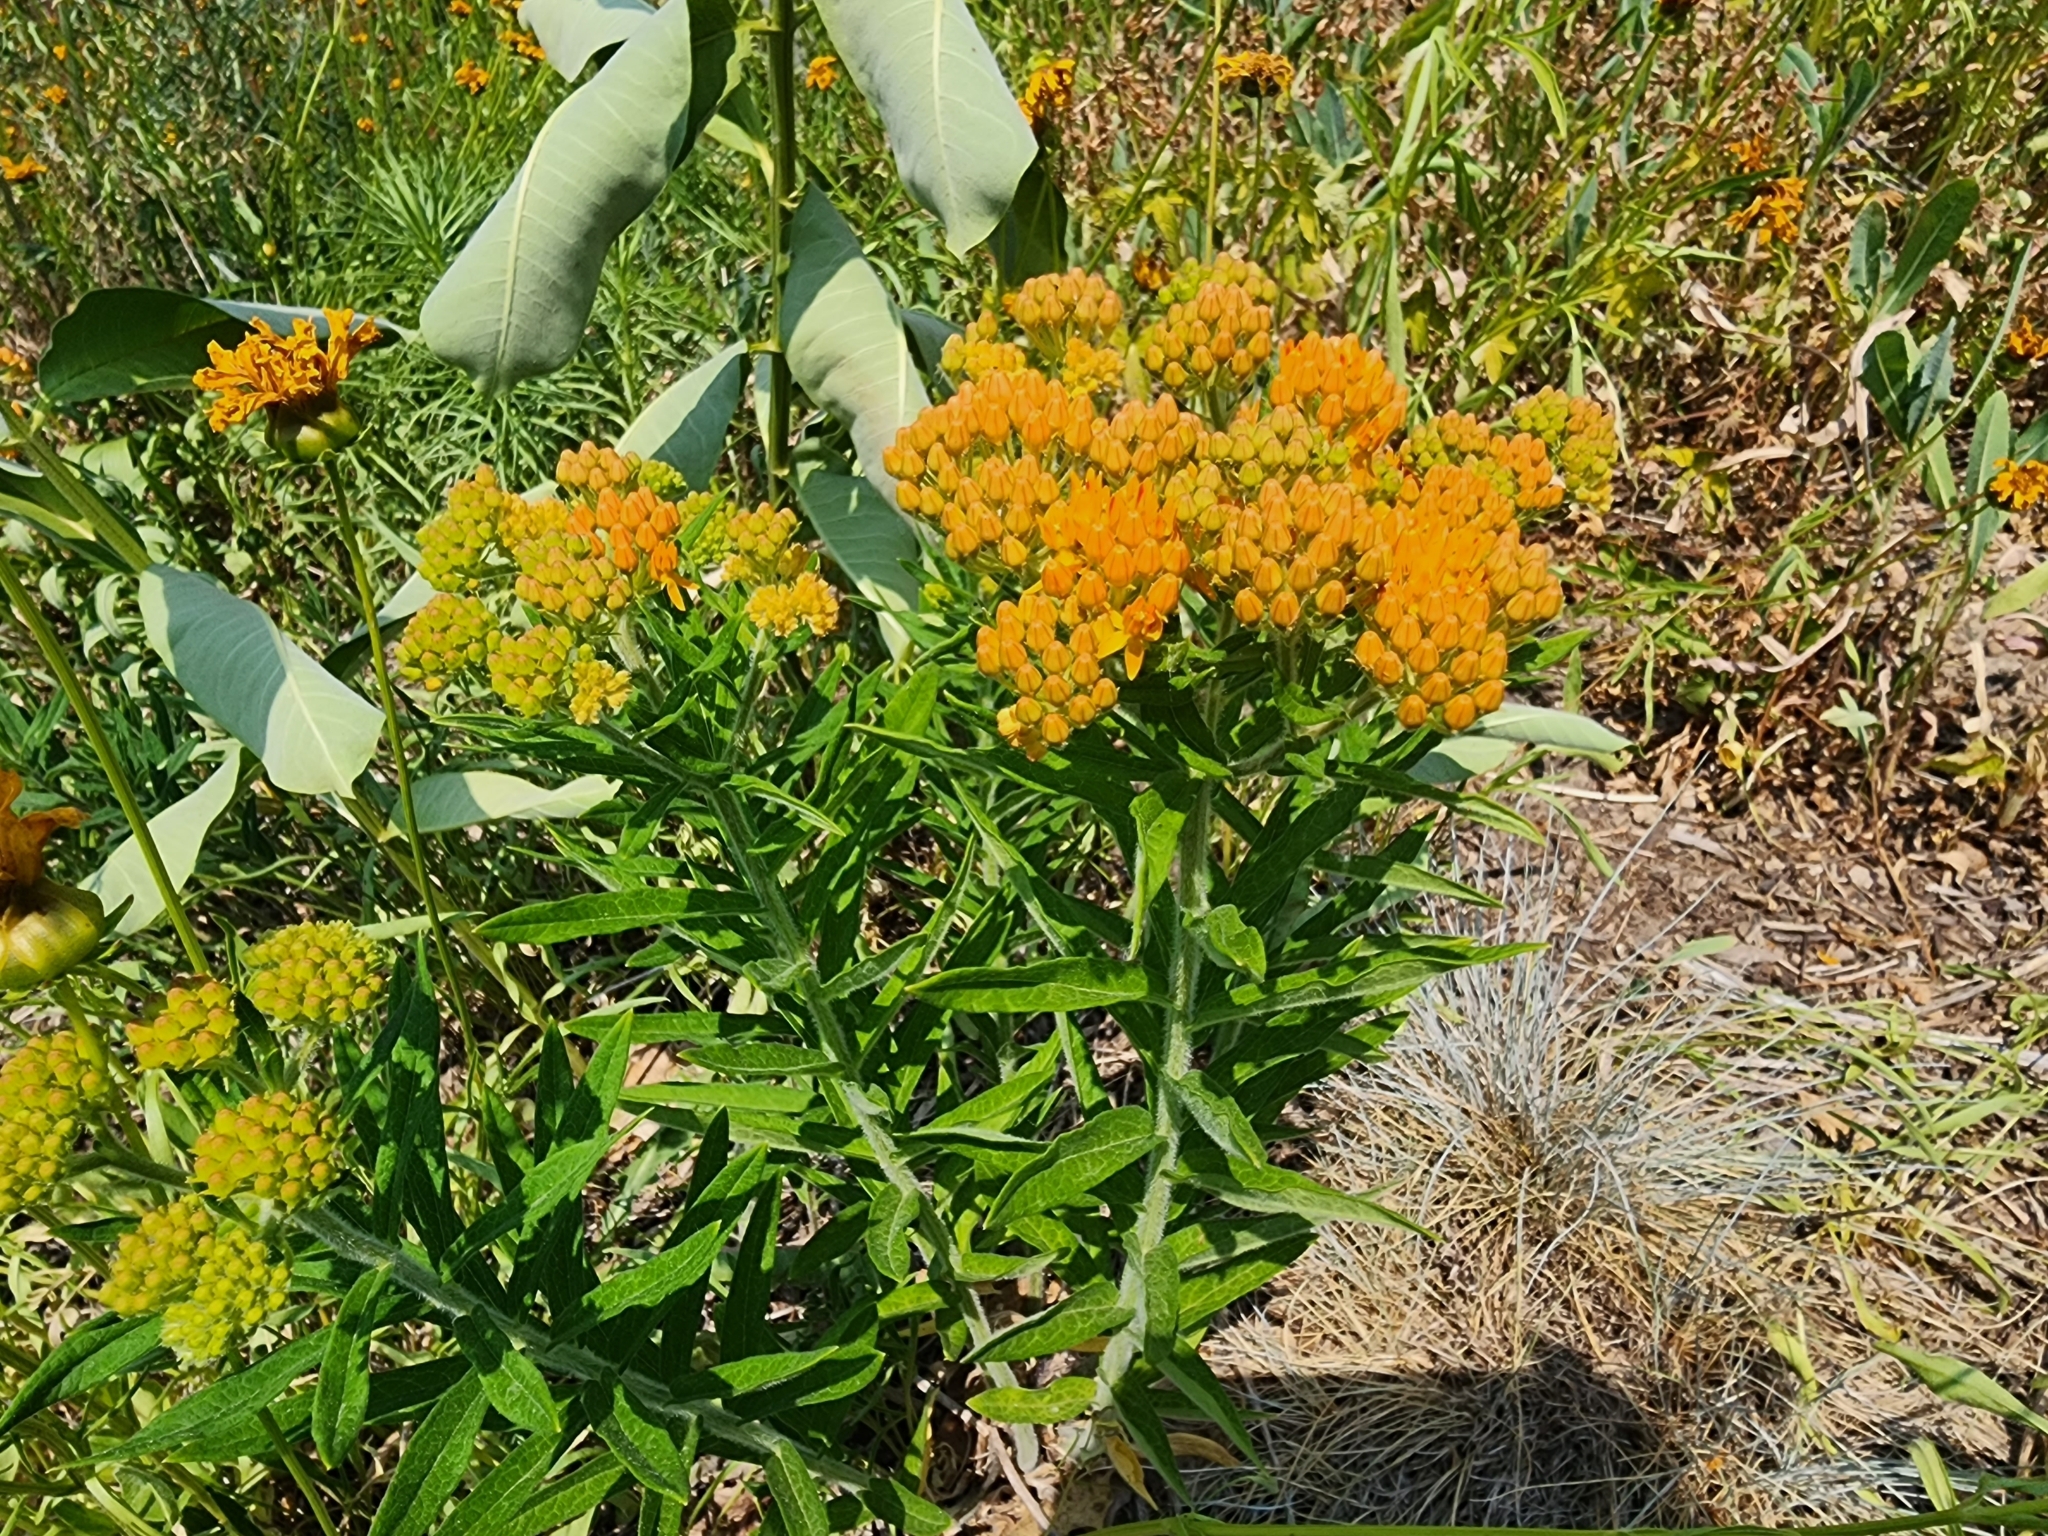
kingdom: Plantae
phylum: Tracheophyta
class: Magnoliopsida
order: Gentianales
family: Apocynaceae
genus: Asclepias
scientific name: Asclepias tuberosa
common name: Butterfly milkweed
